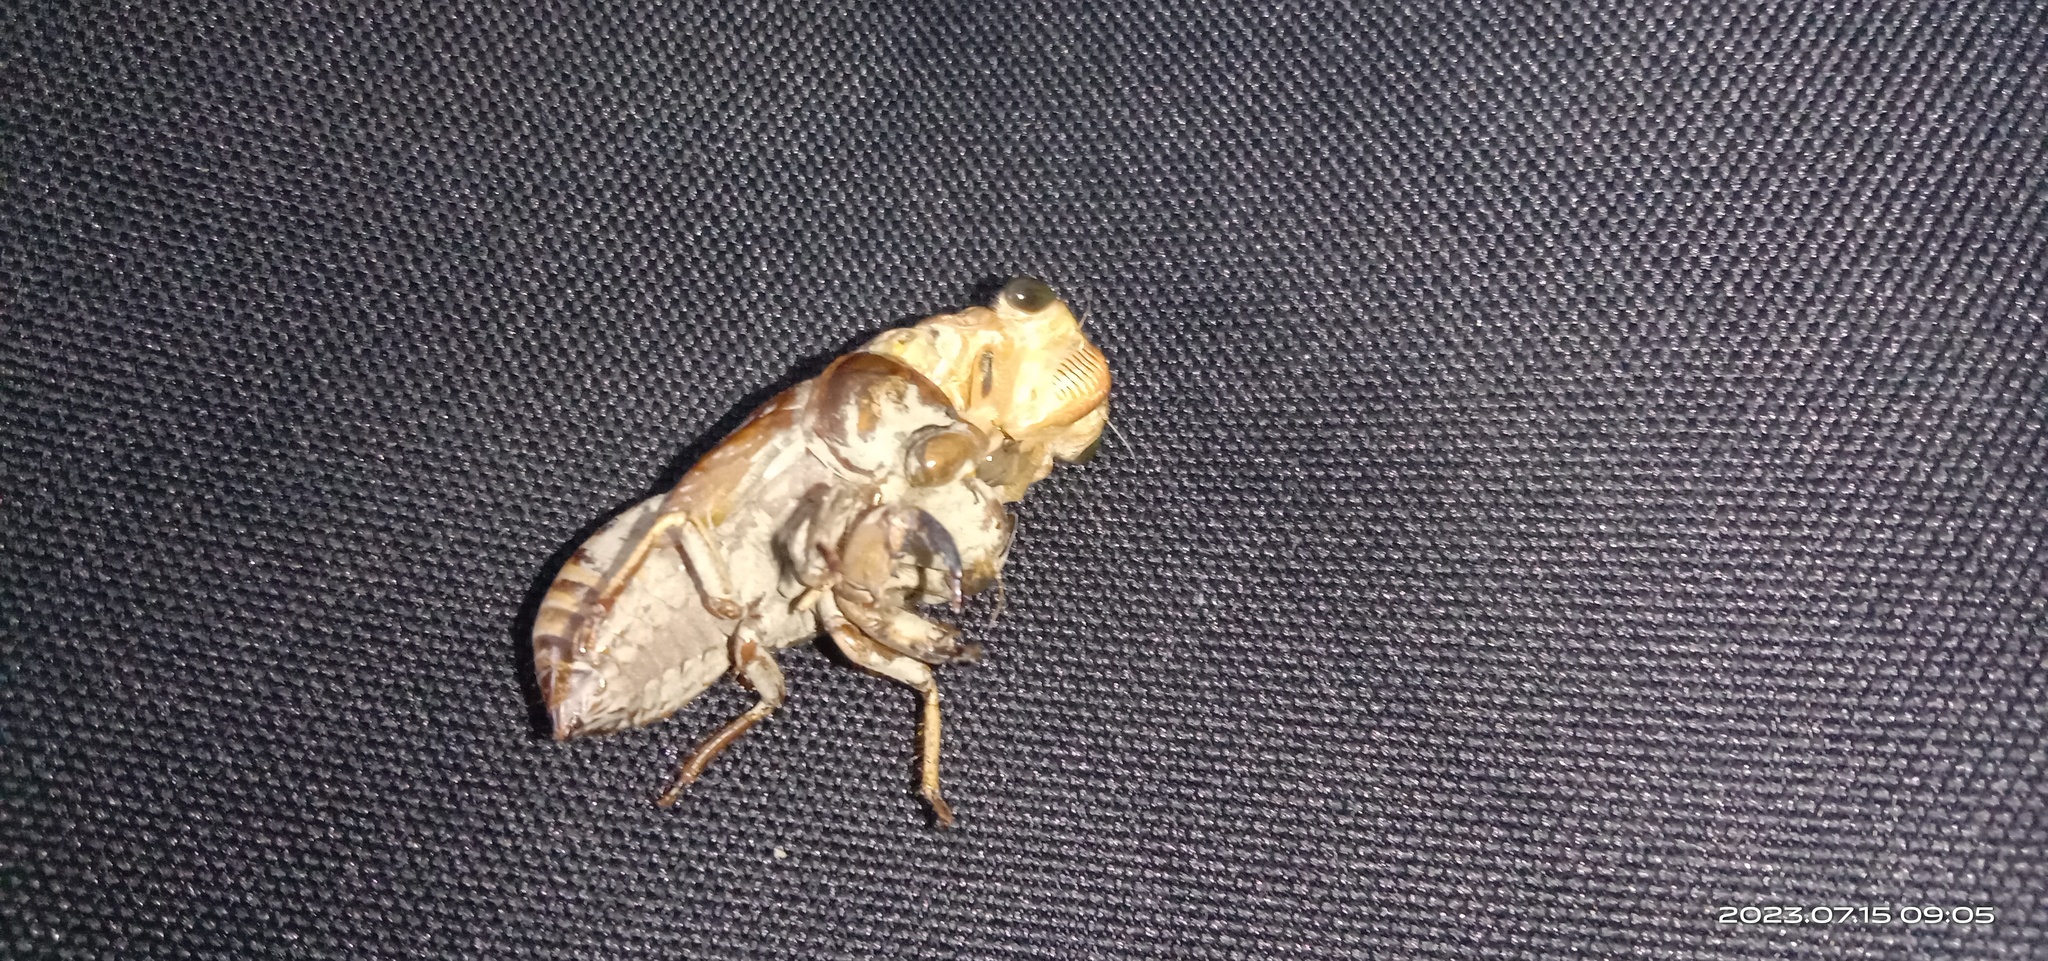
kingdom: Animalia
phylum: Arthropoda
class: Insecta
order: Hemiptera
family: Cicadidae
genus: Cryptotympana
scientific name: Cryptotympana takasagona
